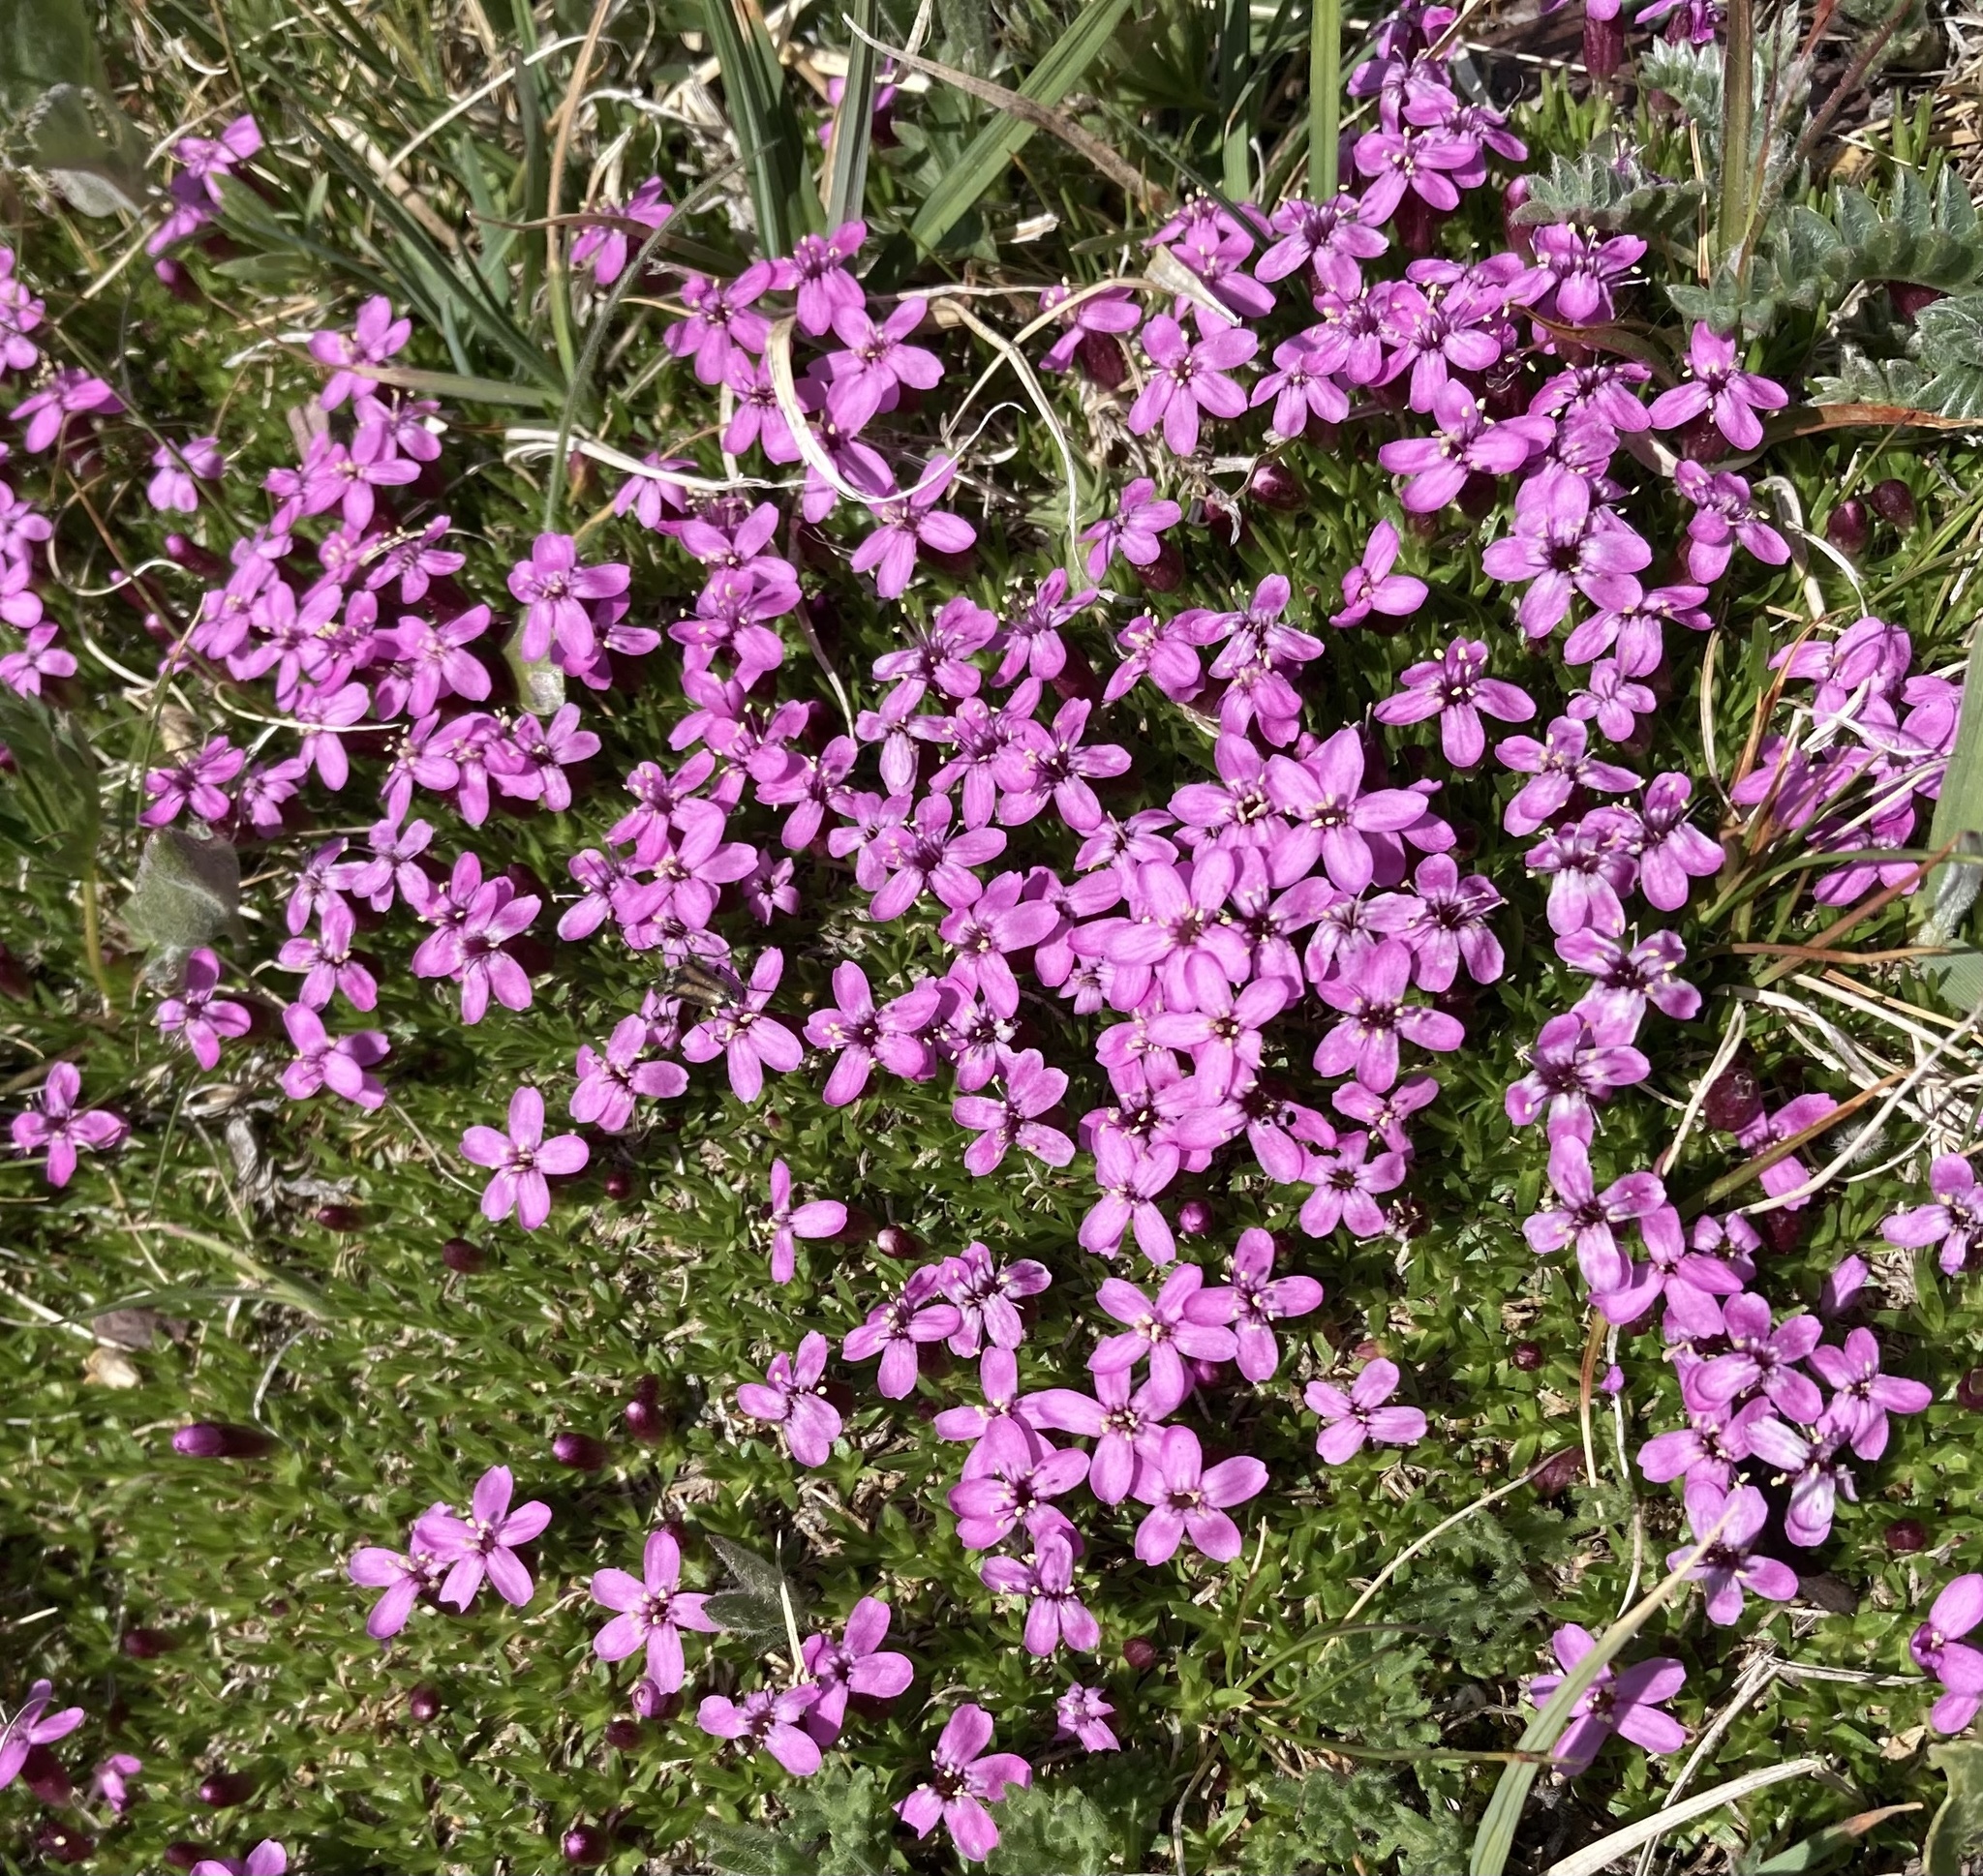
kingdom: Plantae
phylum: Tracheophyta
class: Magnoliopsida
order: Caryophyllales
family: Caryophyllaceae
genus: Silene
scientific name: Silene acaulis
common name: Moss campion
